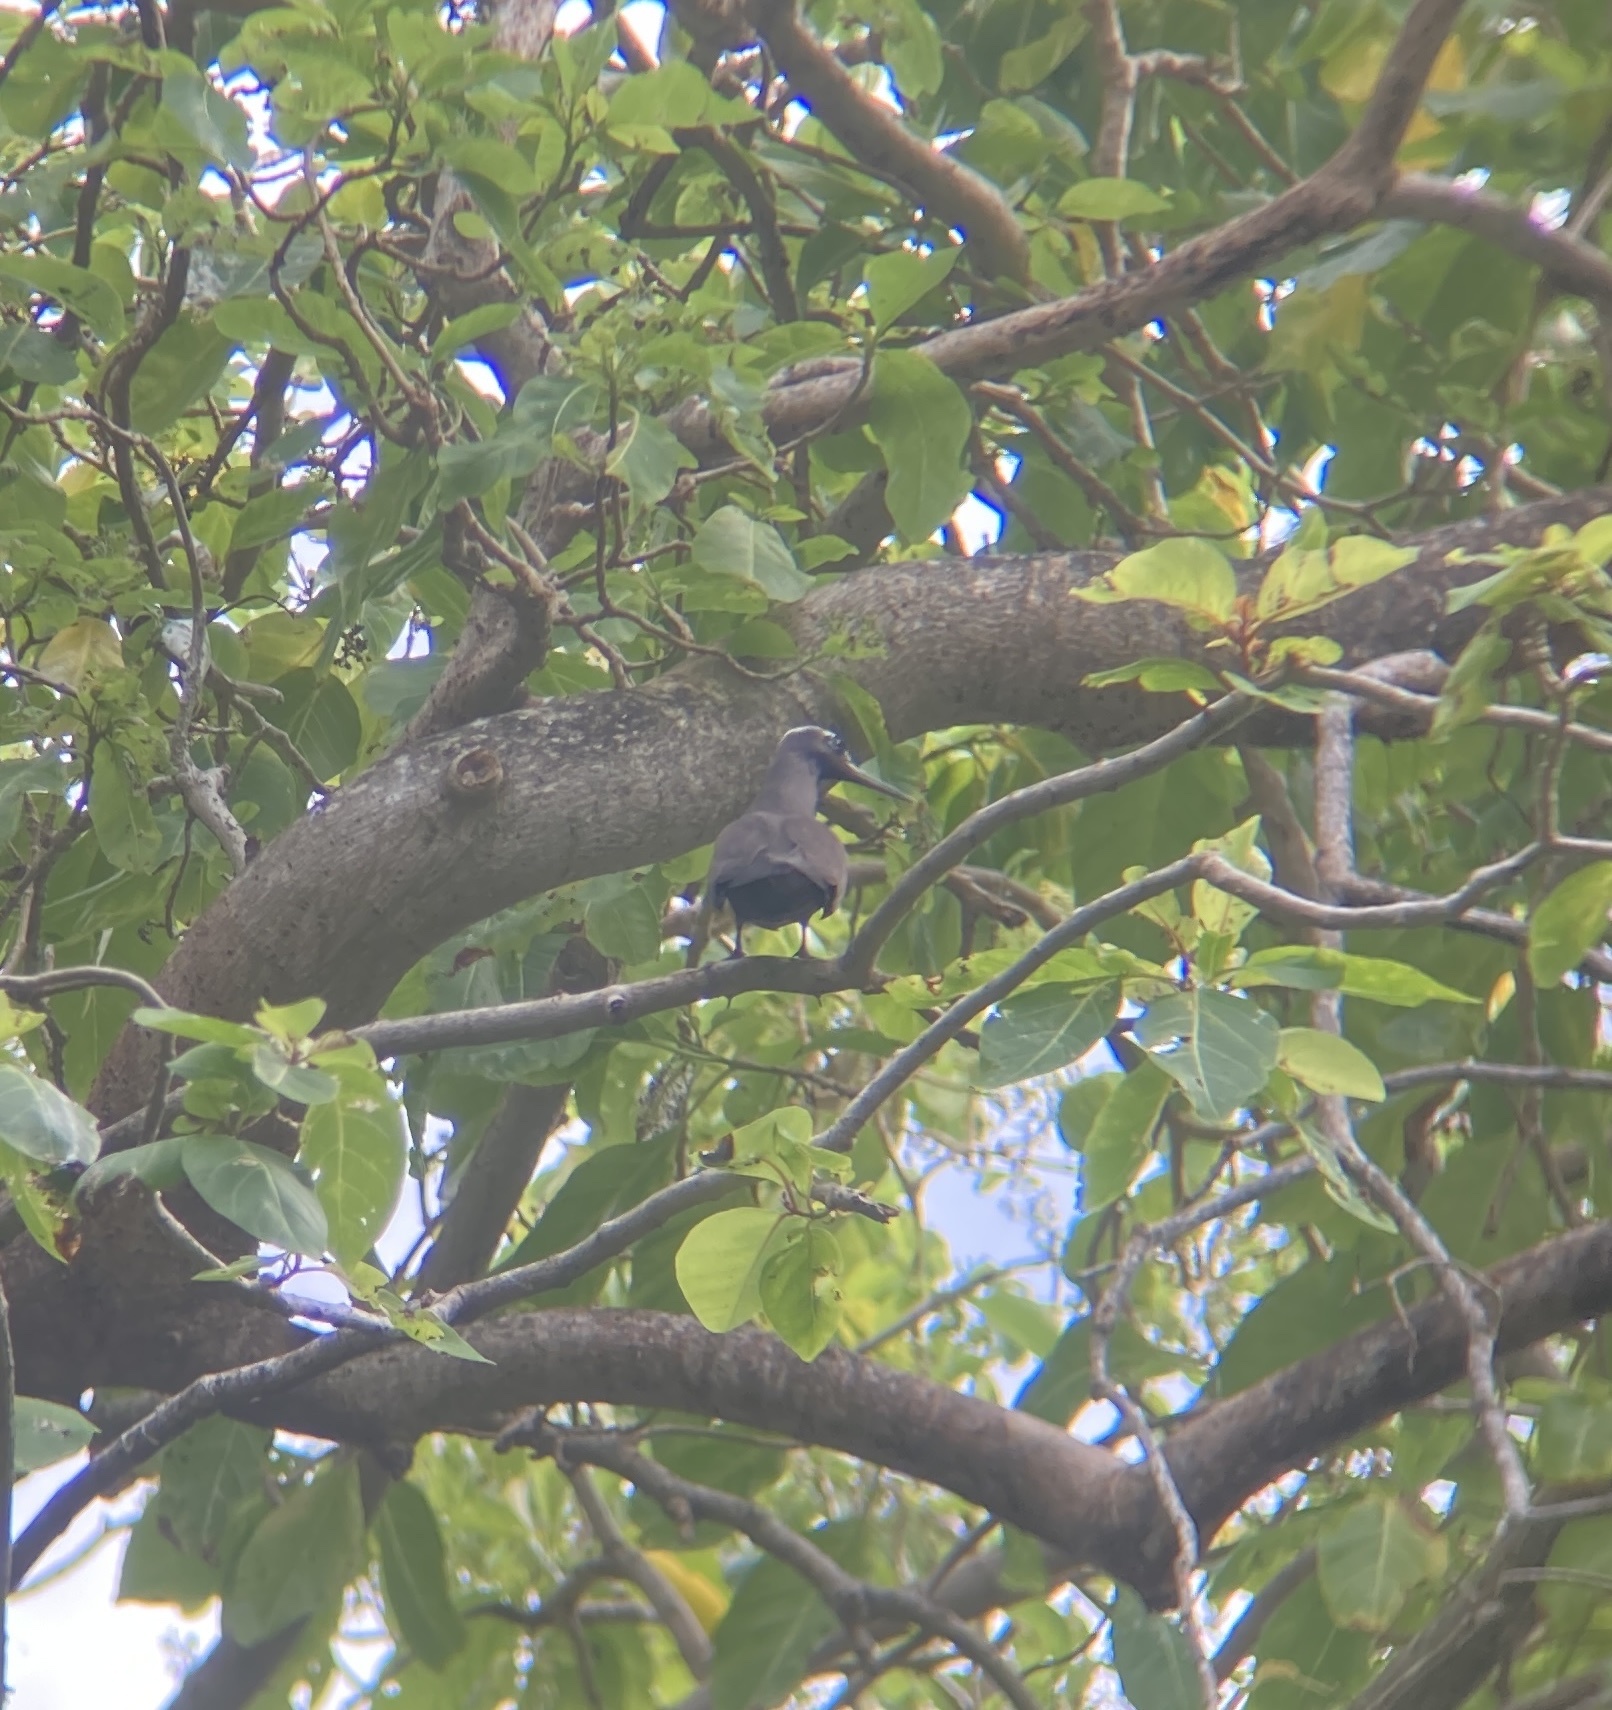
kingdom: Animalia
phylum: Chordata
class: Aves
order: Charadriiformes
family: Laridae
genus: Anous
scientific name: Anous minutus
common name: Black noddy
